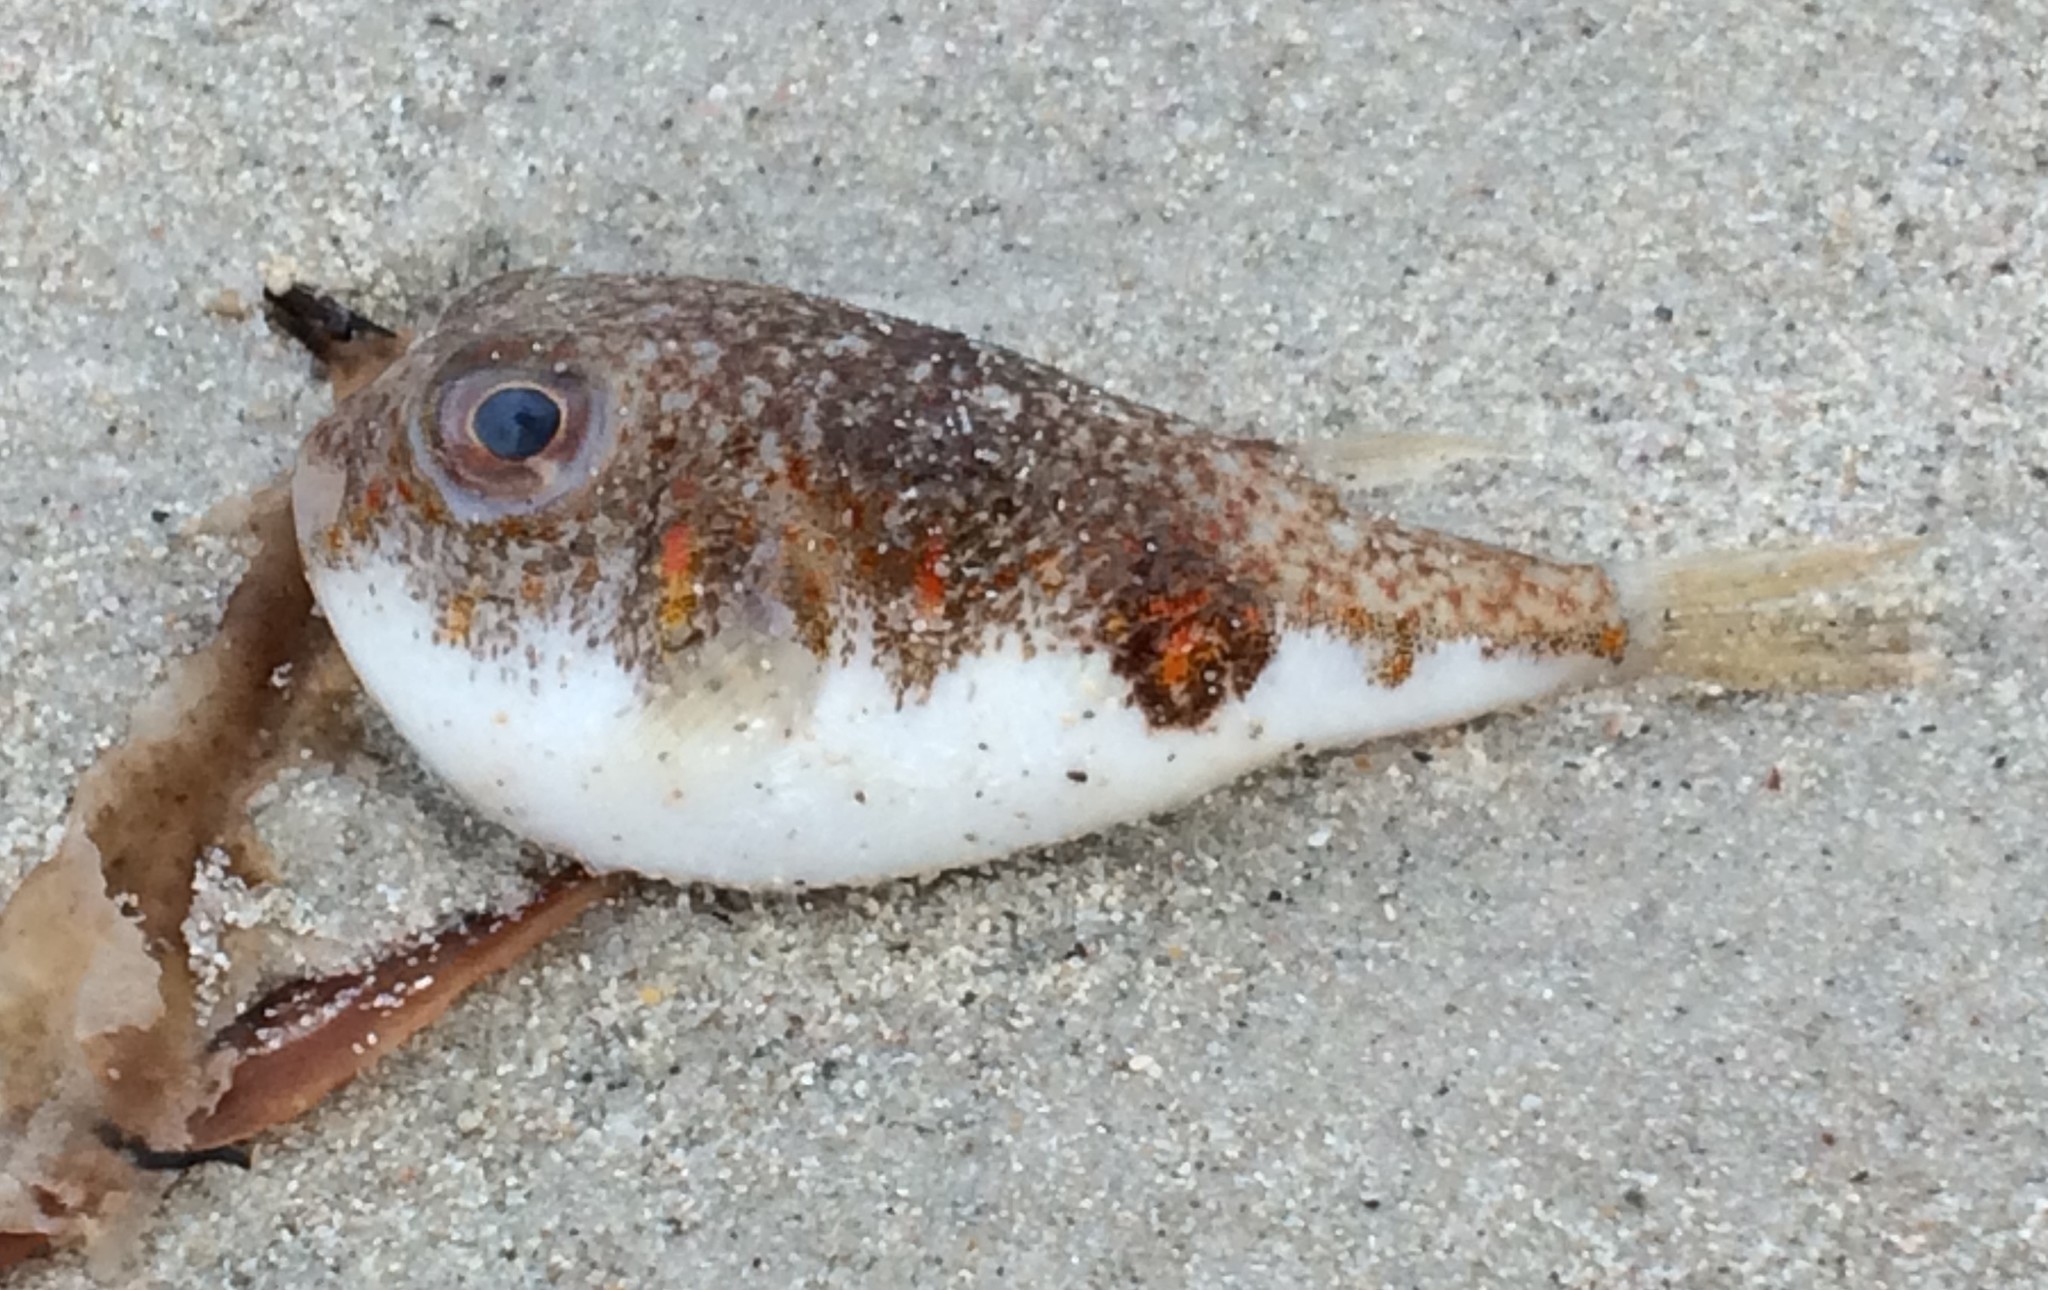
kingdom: Animalia
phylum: Chordata
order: Tetraodontiformes
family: Tetraodontidae
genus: Polyspina
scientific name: Polyspina piosae
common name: Orange-barred pufferfish
